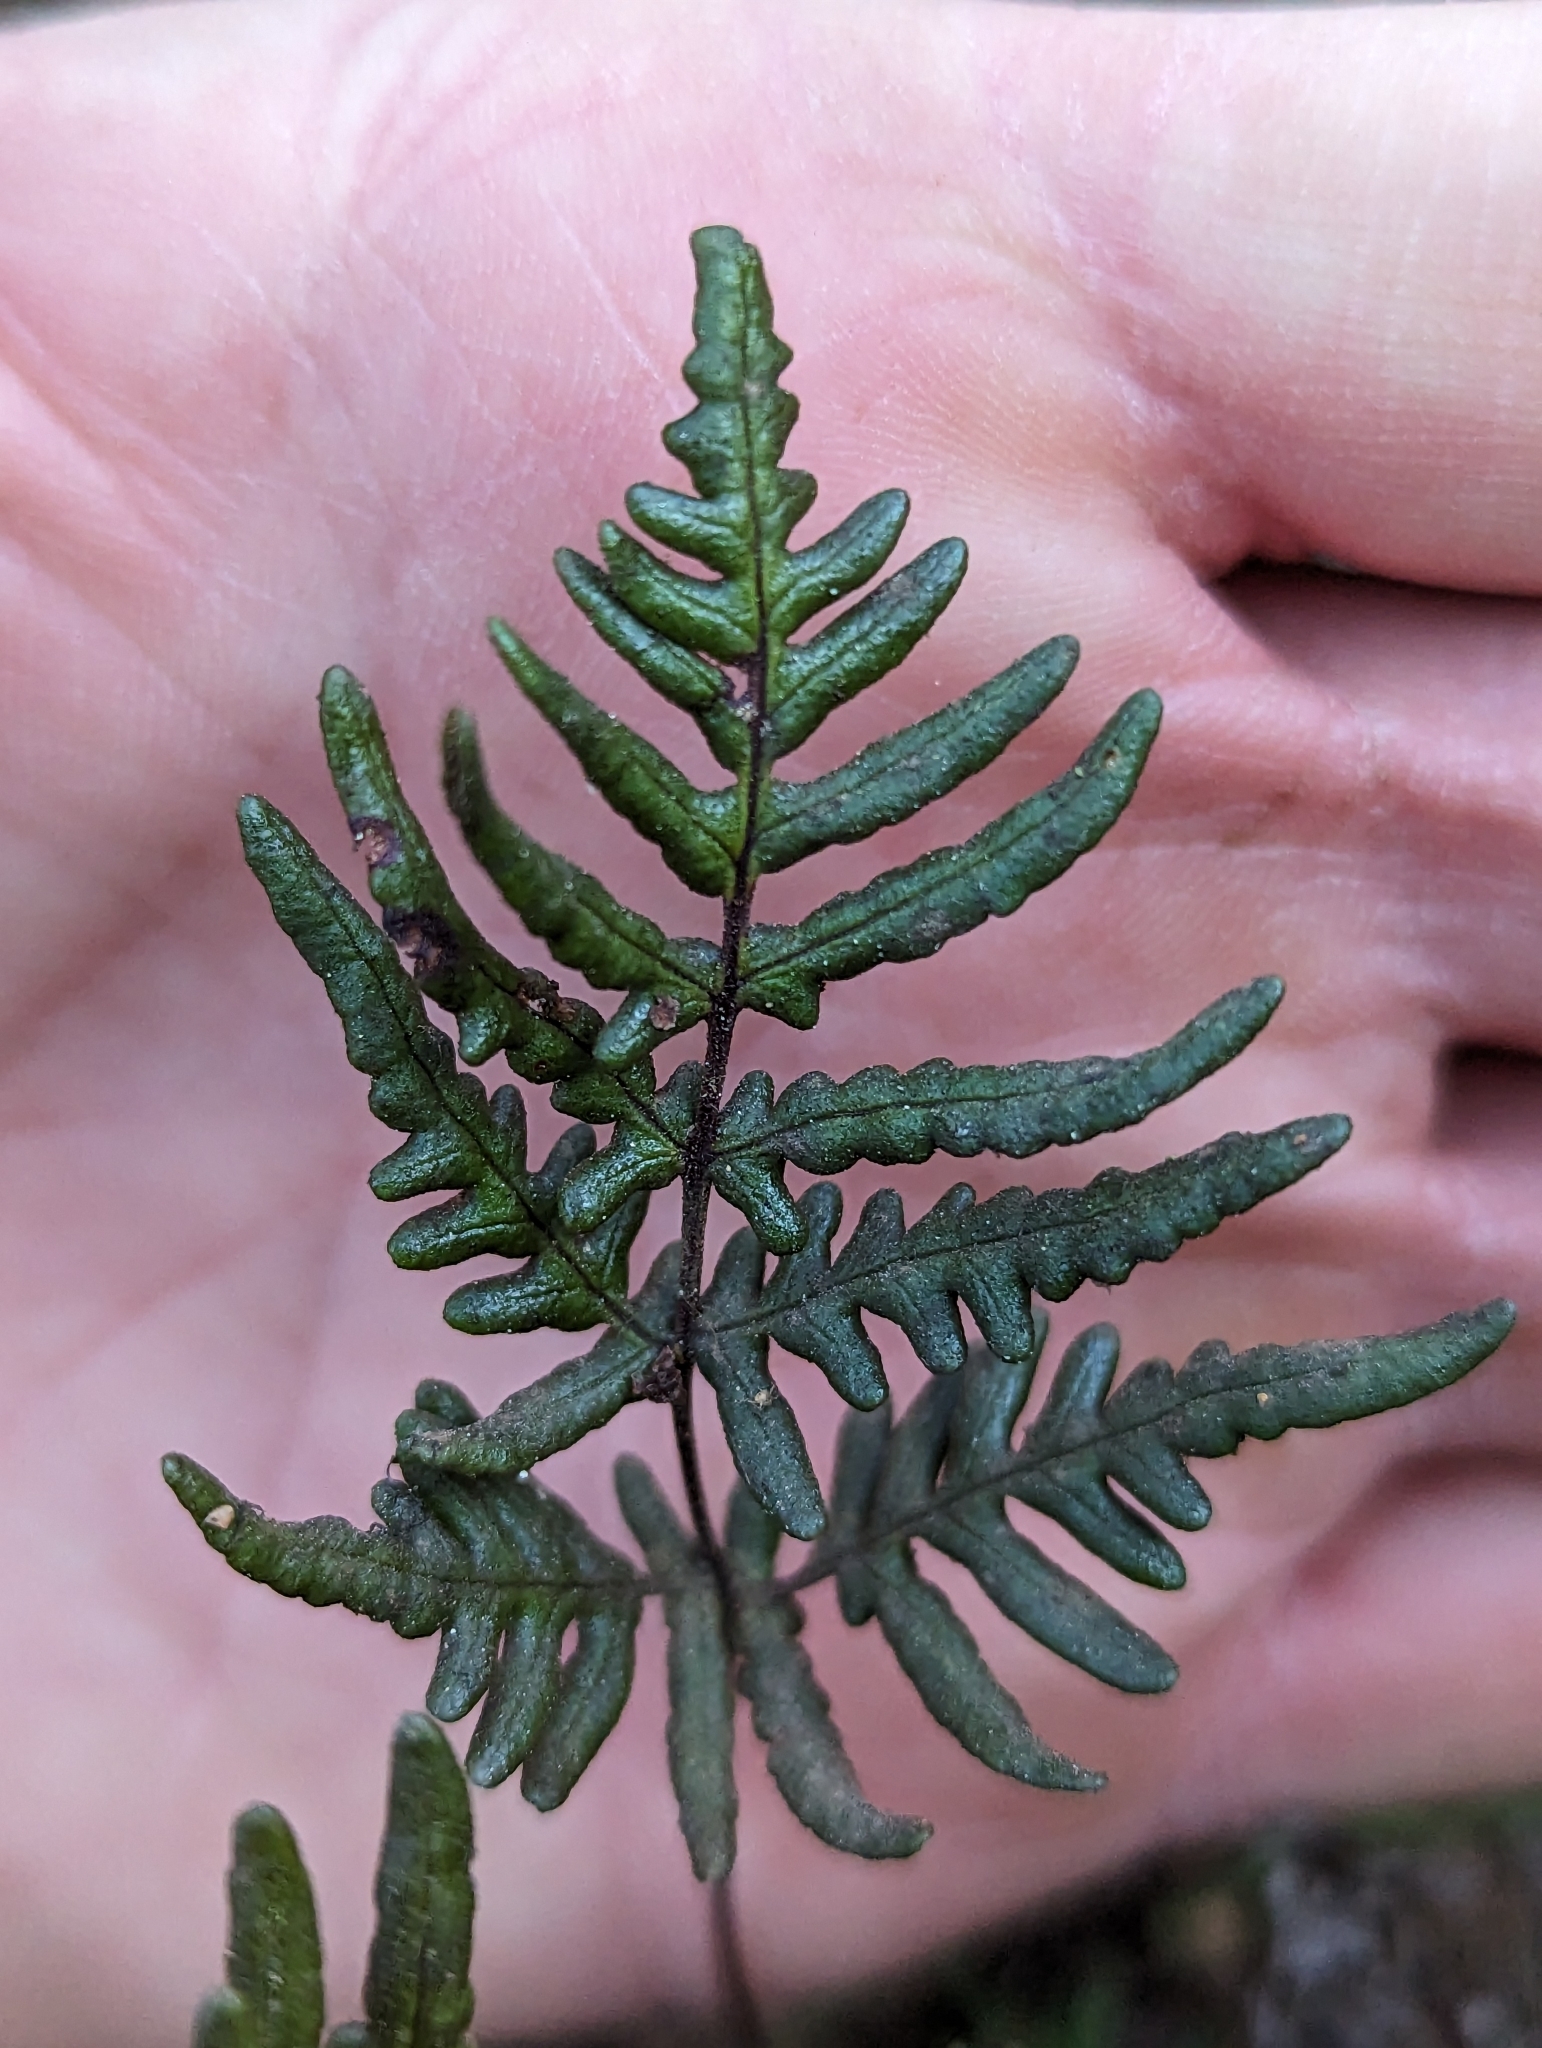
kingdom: Plantae
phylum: Tracheophyta
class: Polypodiopsida
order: Polypodiales
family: Pteridaceae
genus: Pentagramma
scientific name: Pentagramma viscosa
